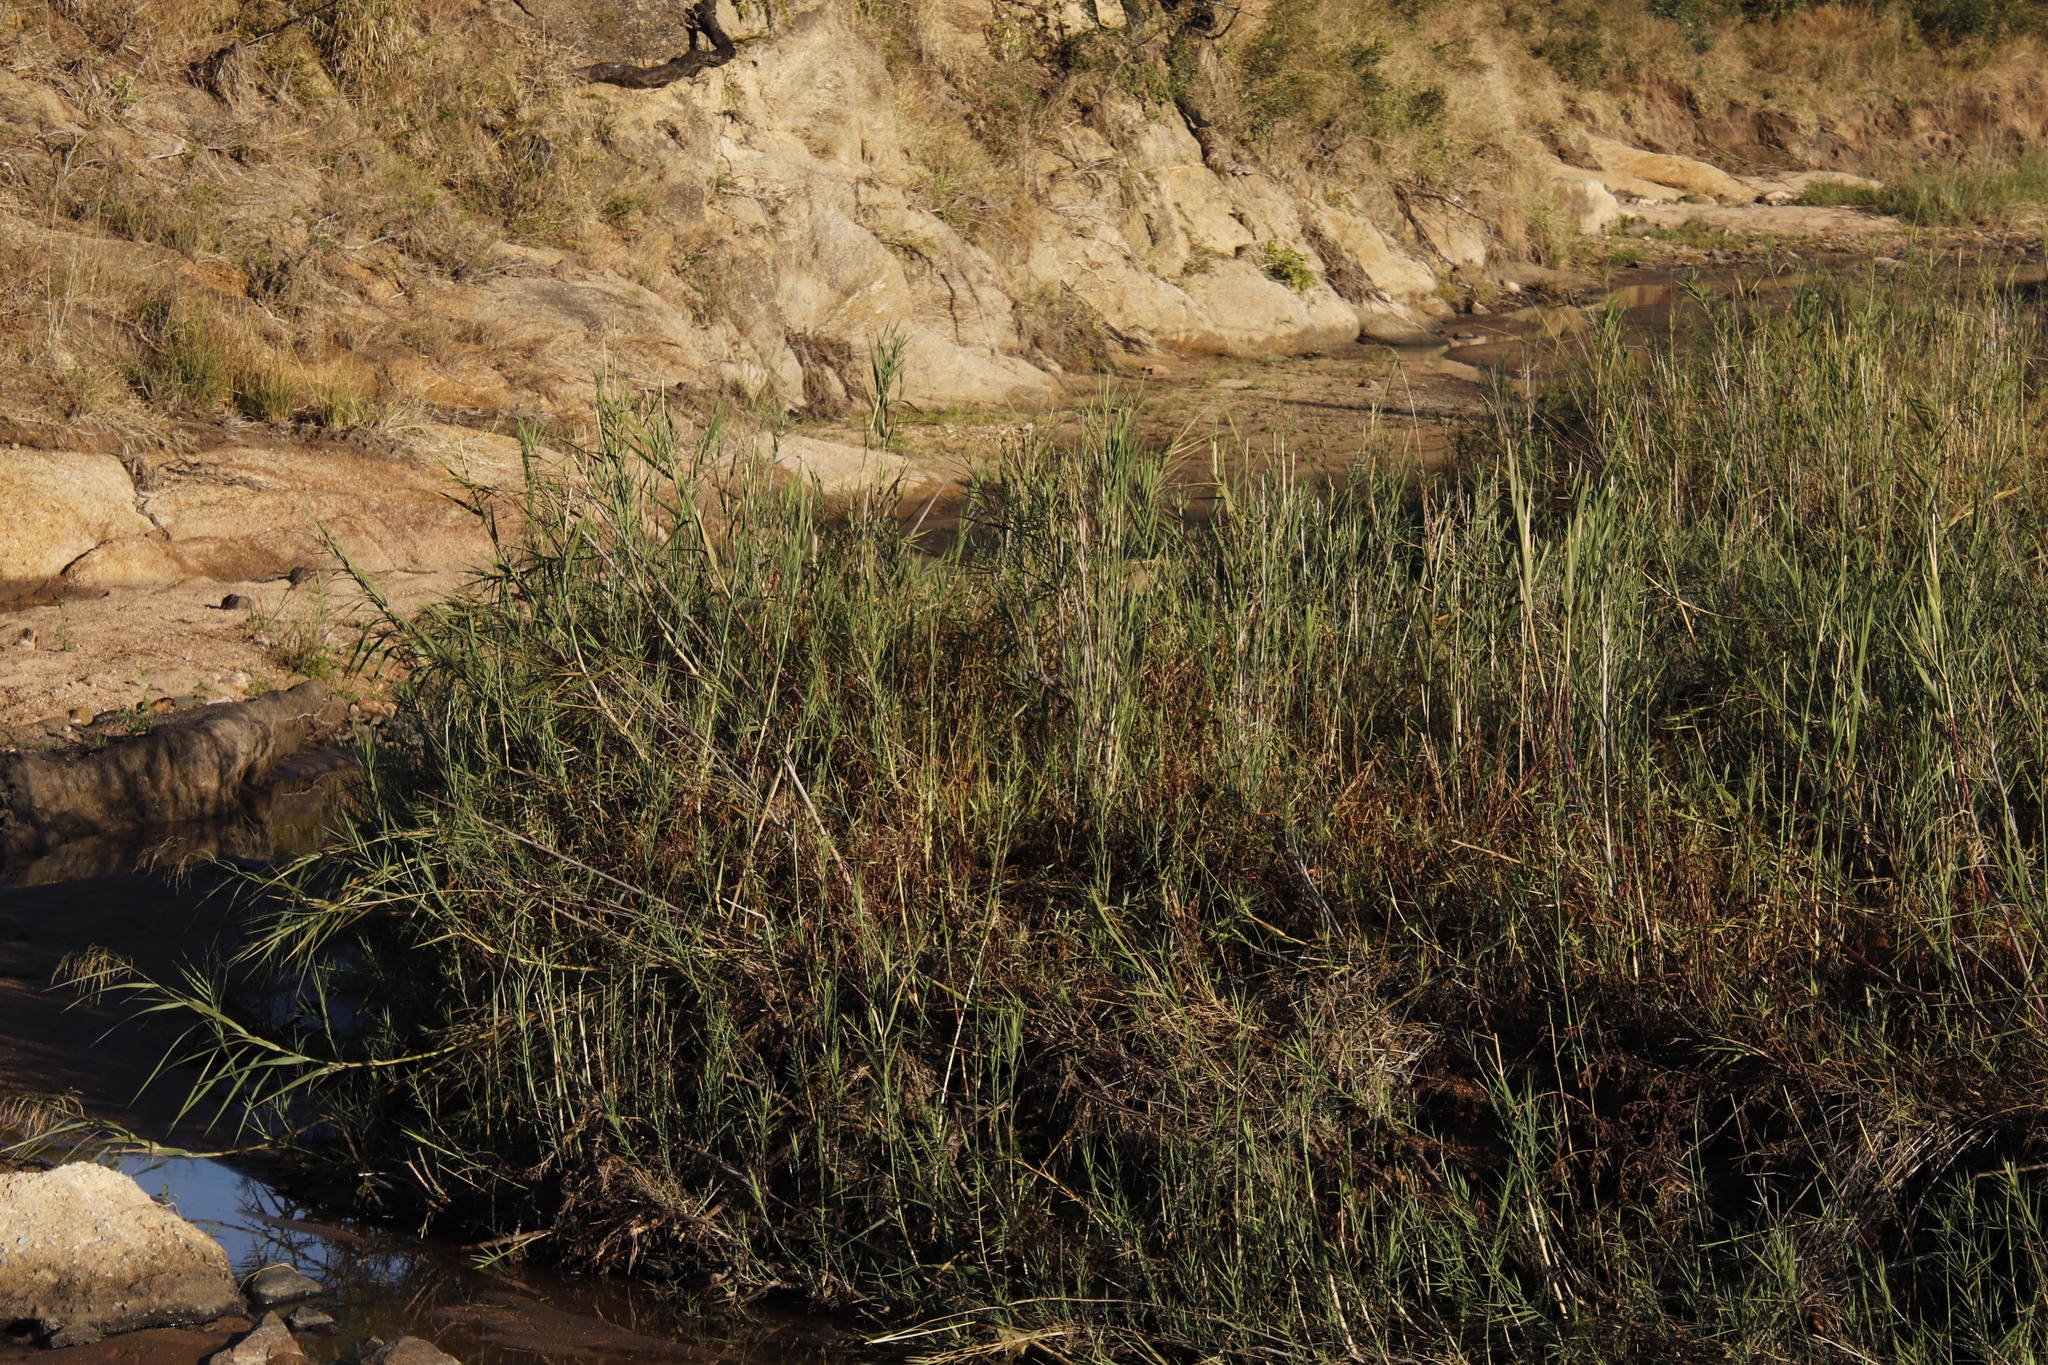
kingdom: Plantae
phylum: Tracheophyta
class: Liliopsida
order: Poales
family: Poaceae
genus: Phragmites
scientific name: Phragmites mauritianus
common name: Reed grass
